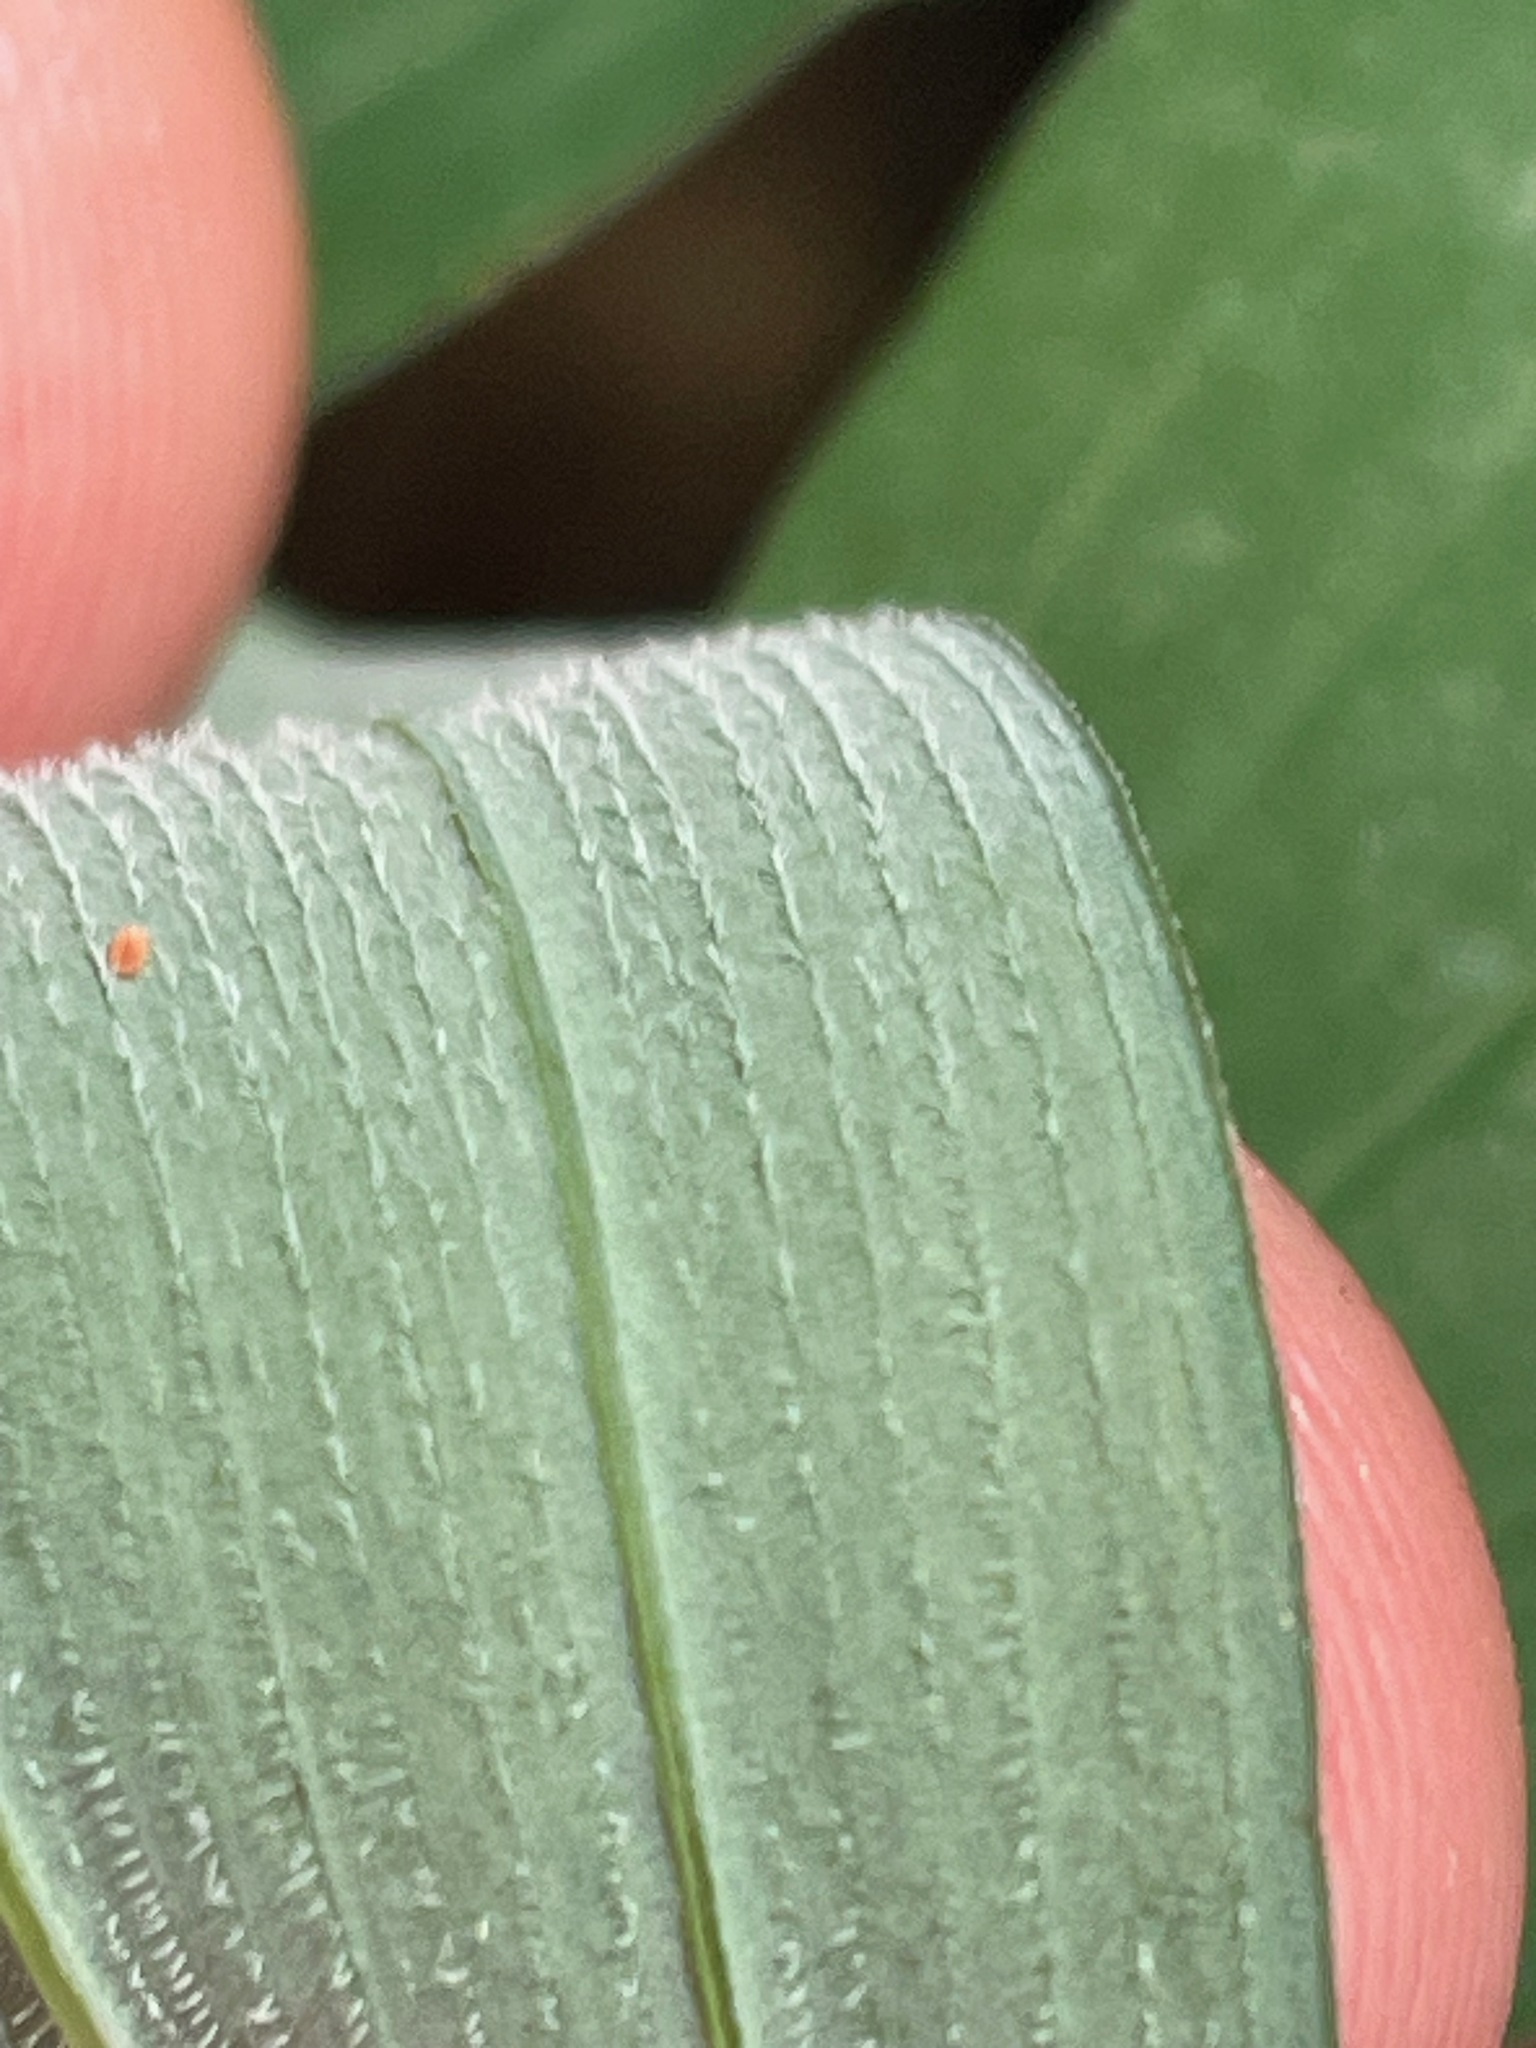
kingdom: Plantae
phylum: Tracheophyta
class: Liliopsida
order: Asparagales
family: Asparagaceae
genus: Polygonatum
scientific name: Polygonatum pubescens
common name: Downy solomon's seal
